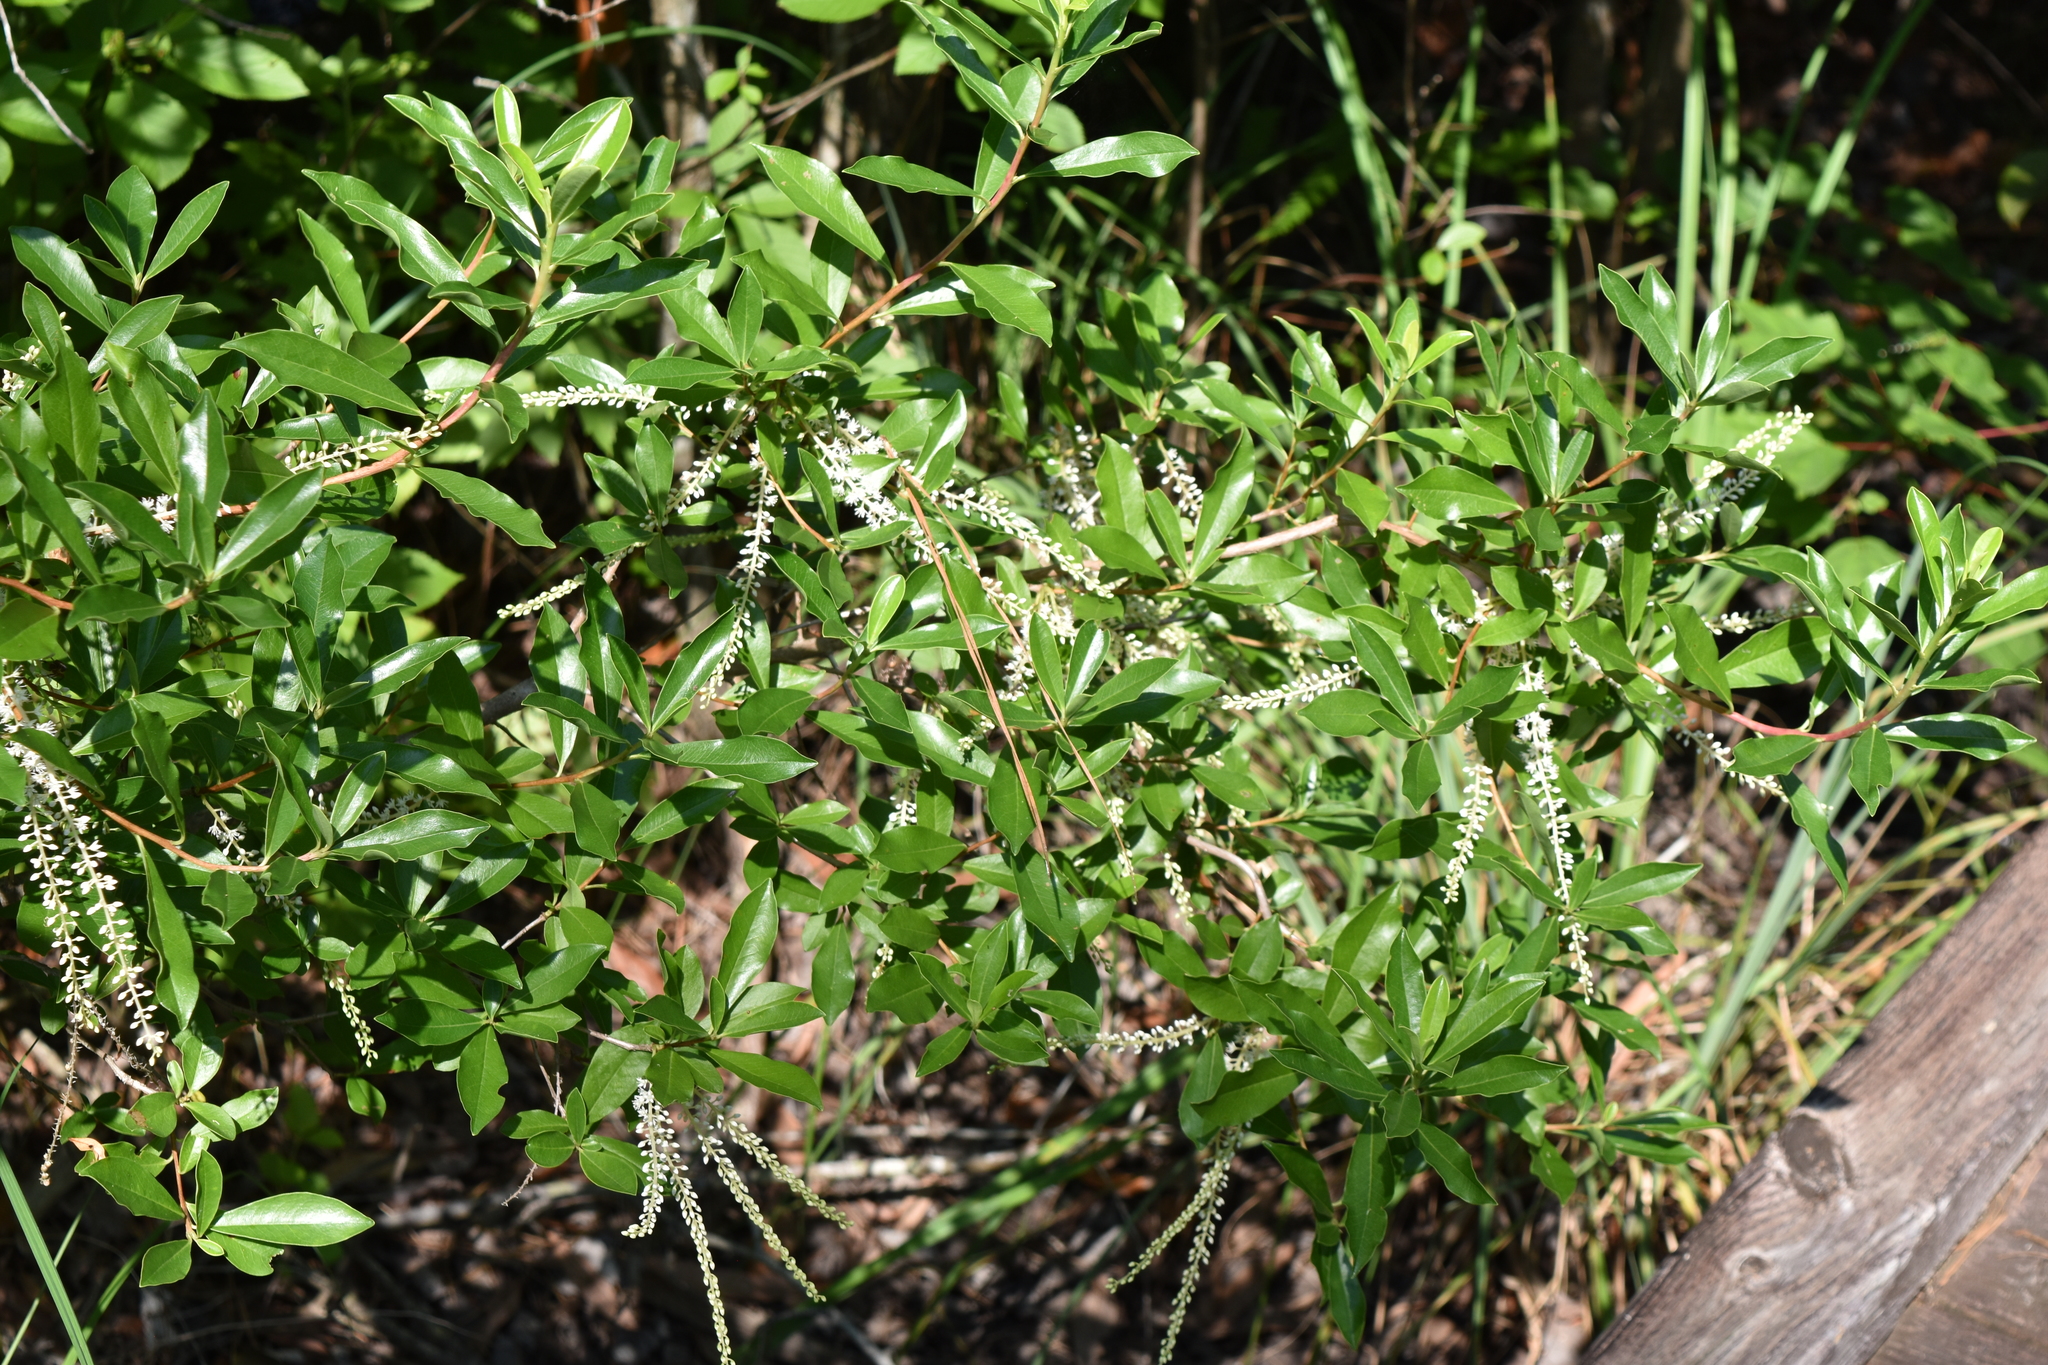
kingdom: Plantae
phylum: Tracheophyta
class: Magnoliopsida
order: Ericales
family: Cyrillaceae
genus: Cyrilla
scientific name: Cyrilla racemiflora
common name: Black titi
